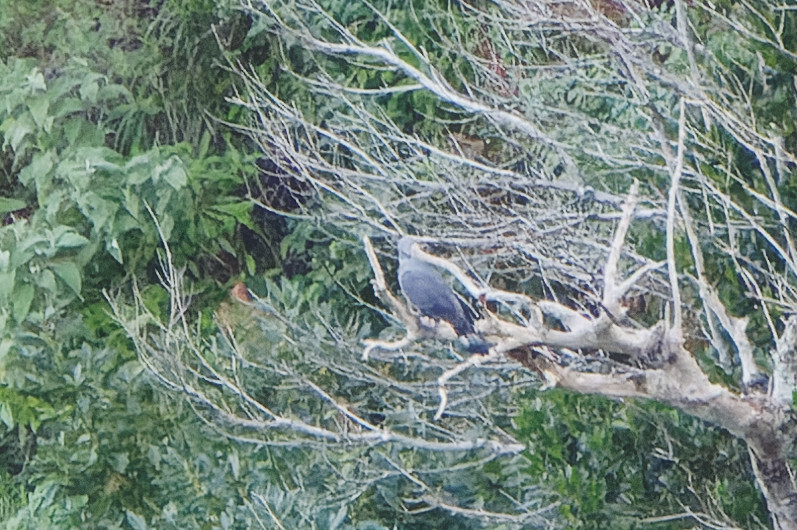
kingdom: Animalia
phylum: Chordata
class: Aves
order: Columbiformes
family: Columbidae
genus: Columba
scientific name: Columba trocaz
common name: Trocaz pigeon
